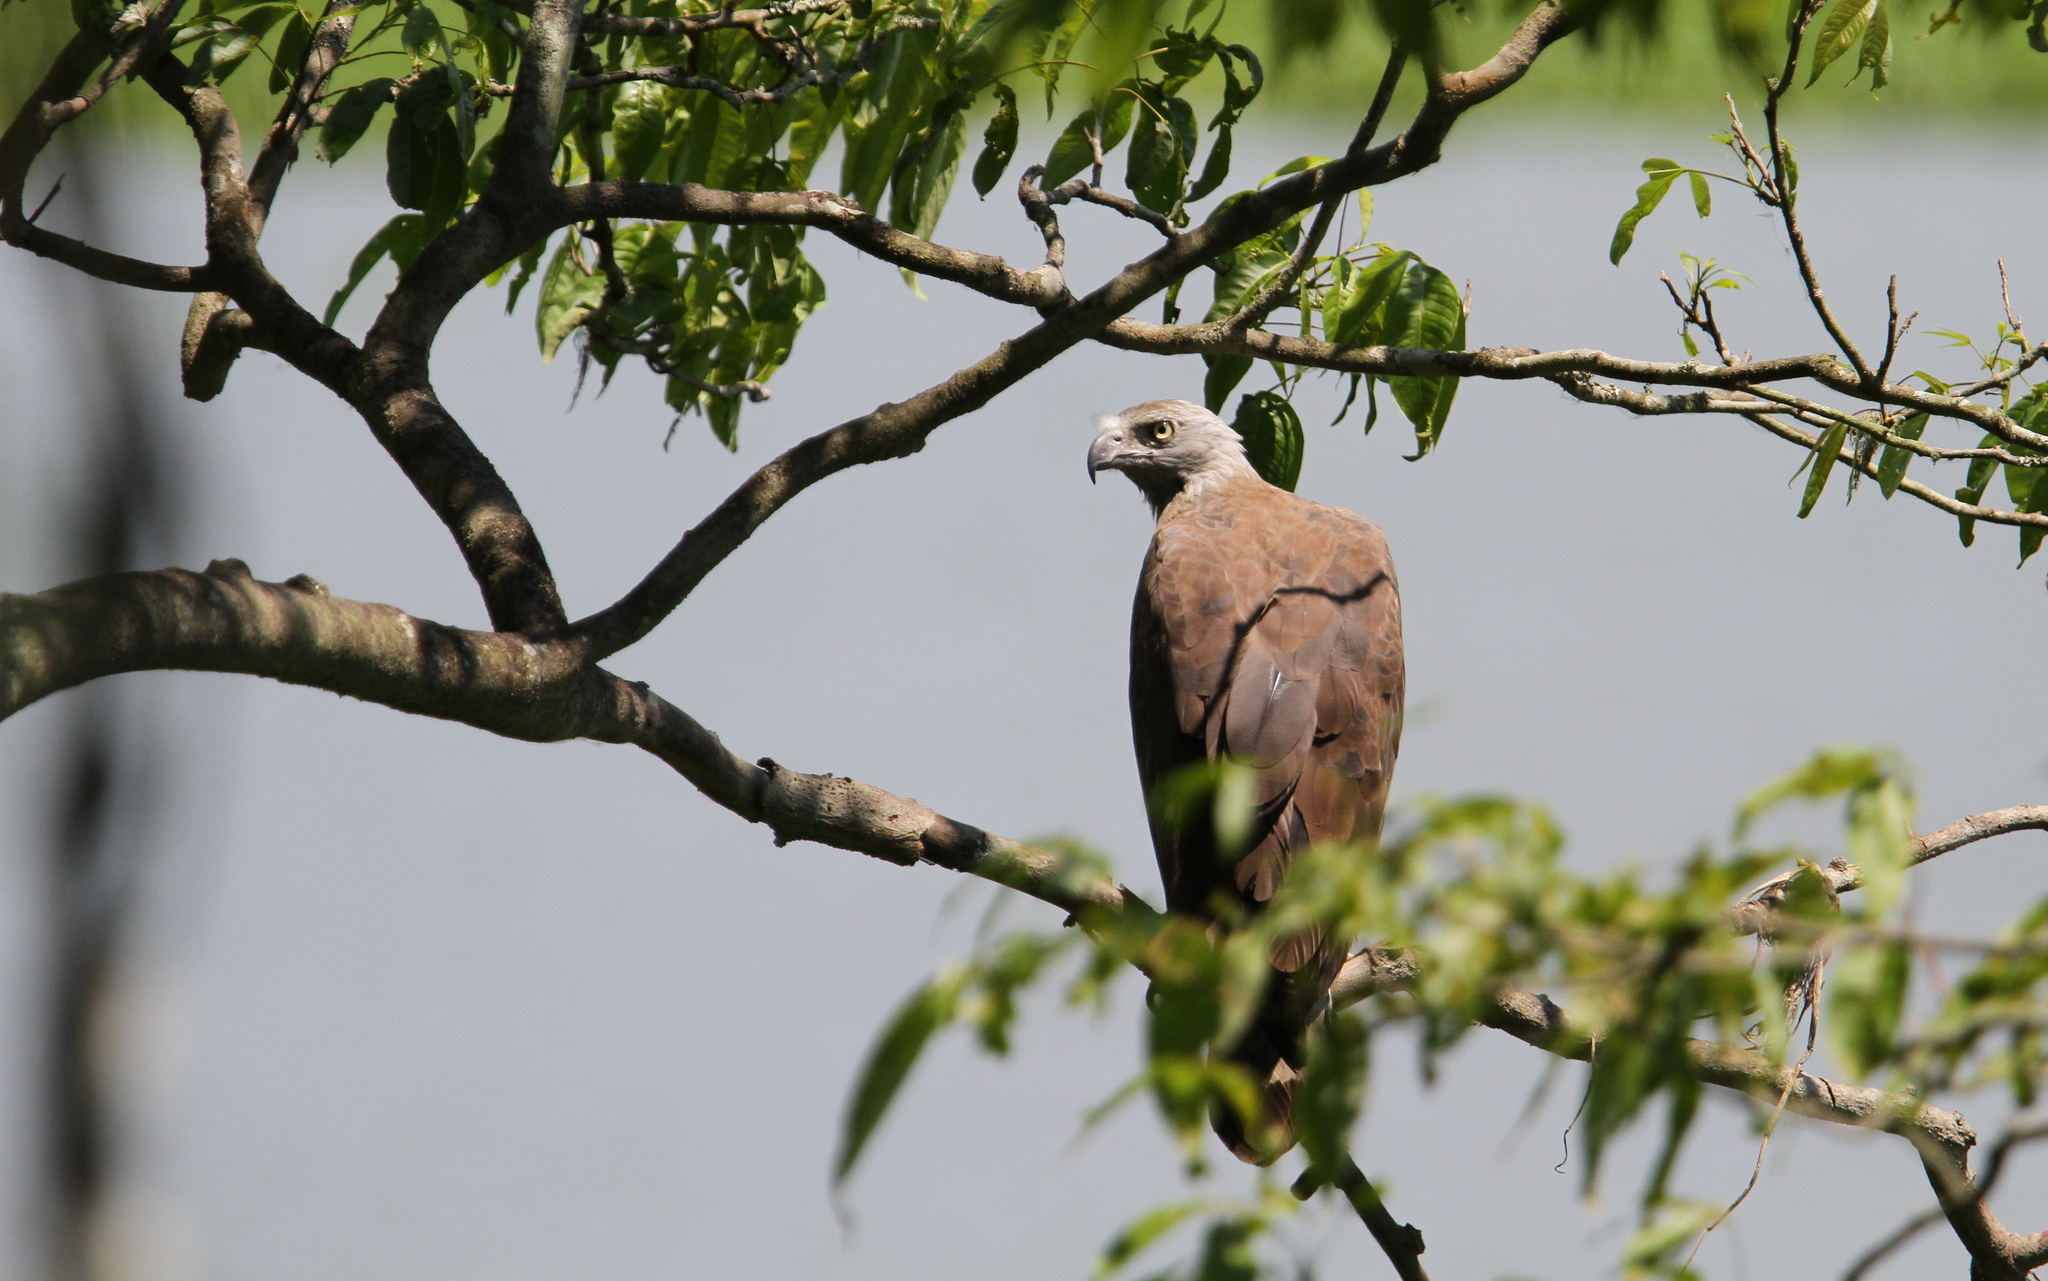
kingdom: Animalia
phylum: Chordata
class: Aves
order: Accipitriformes
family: Accipitridae
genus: Icthyophaga
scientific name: Icthyophaga ichthyaetus
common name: Grey-headed fish eagle
